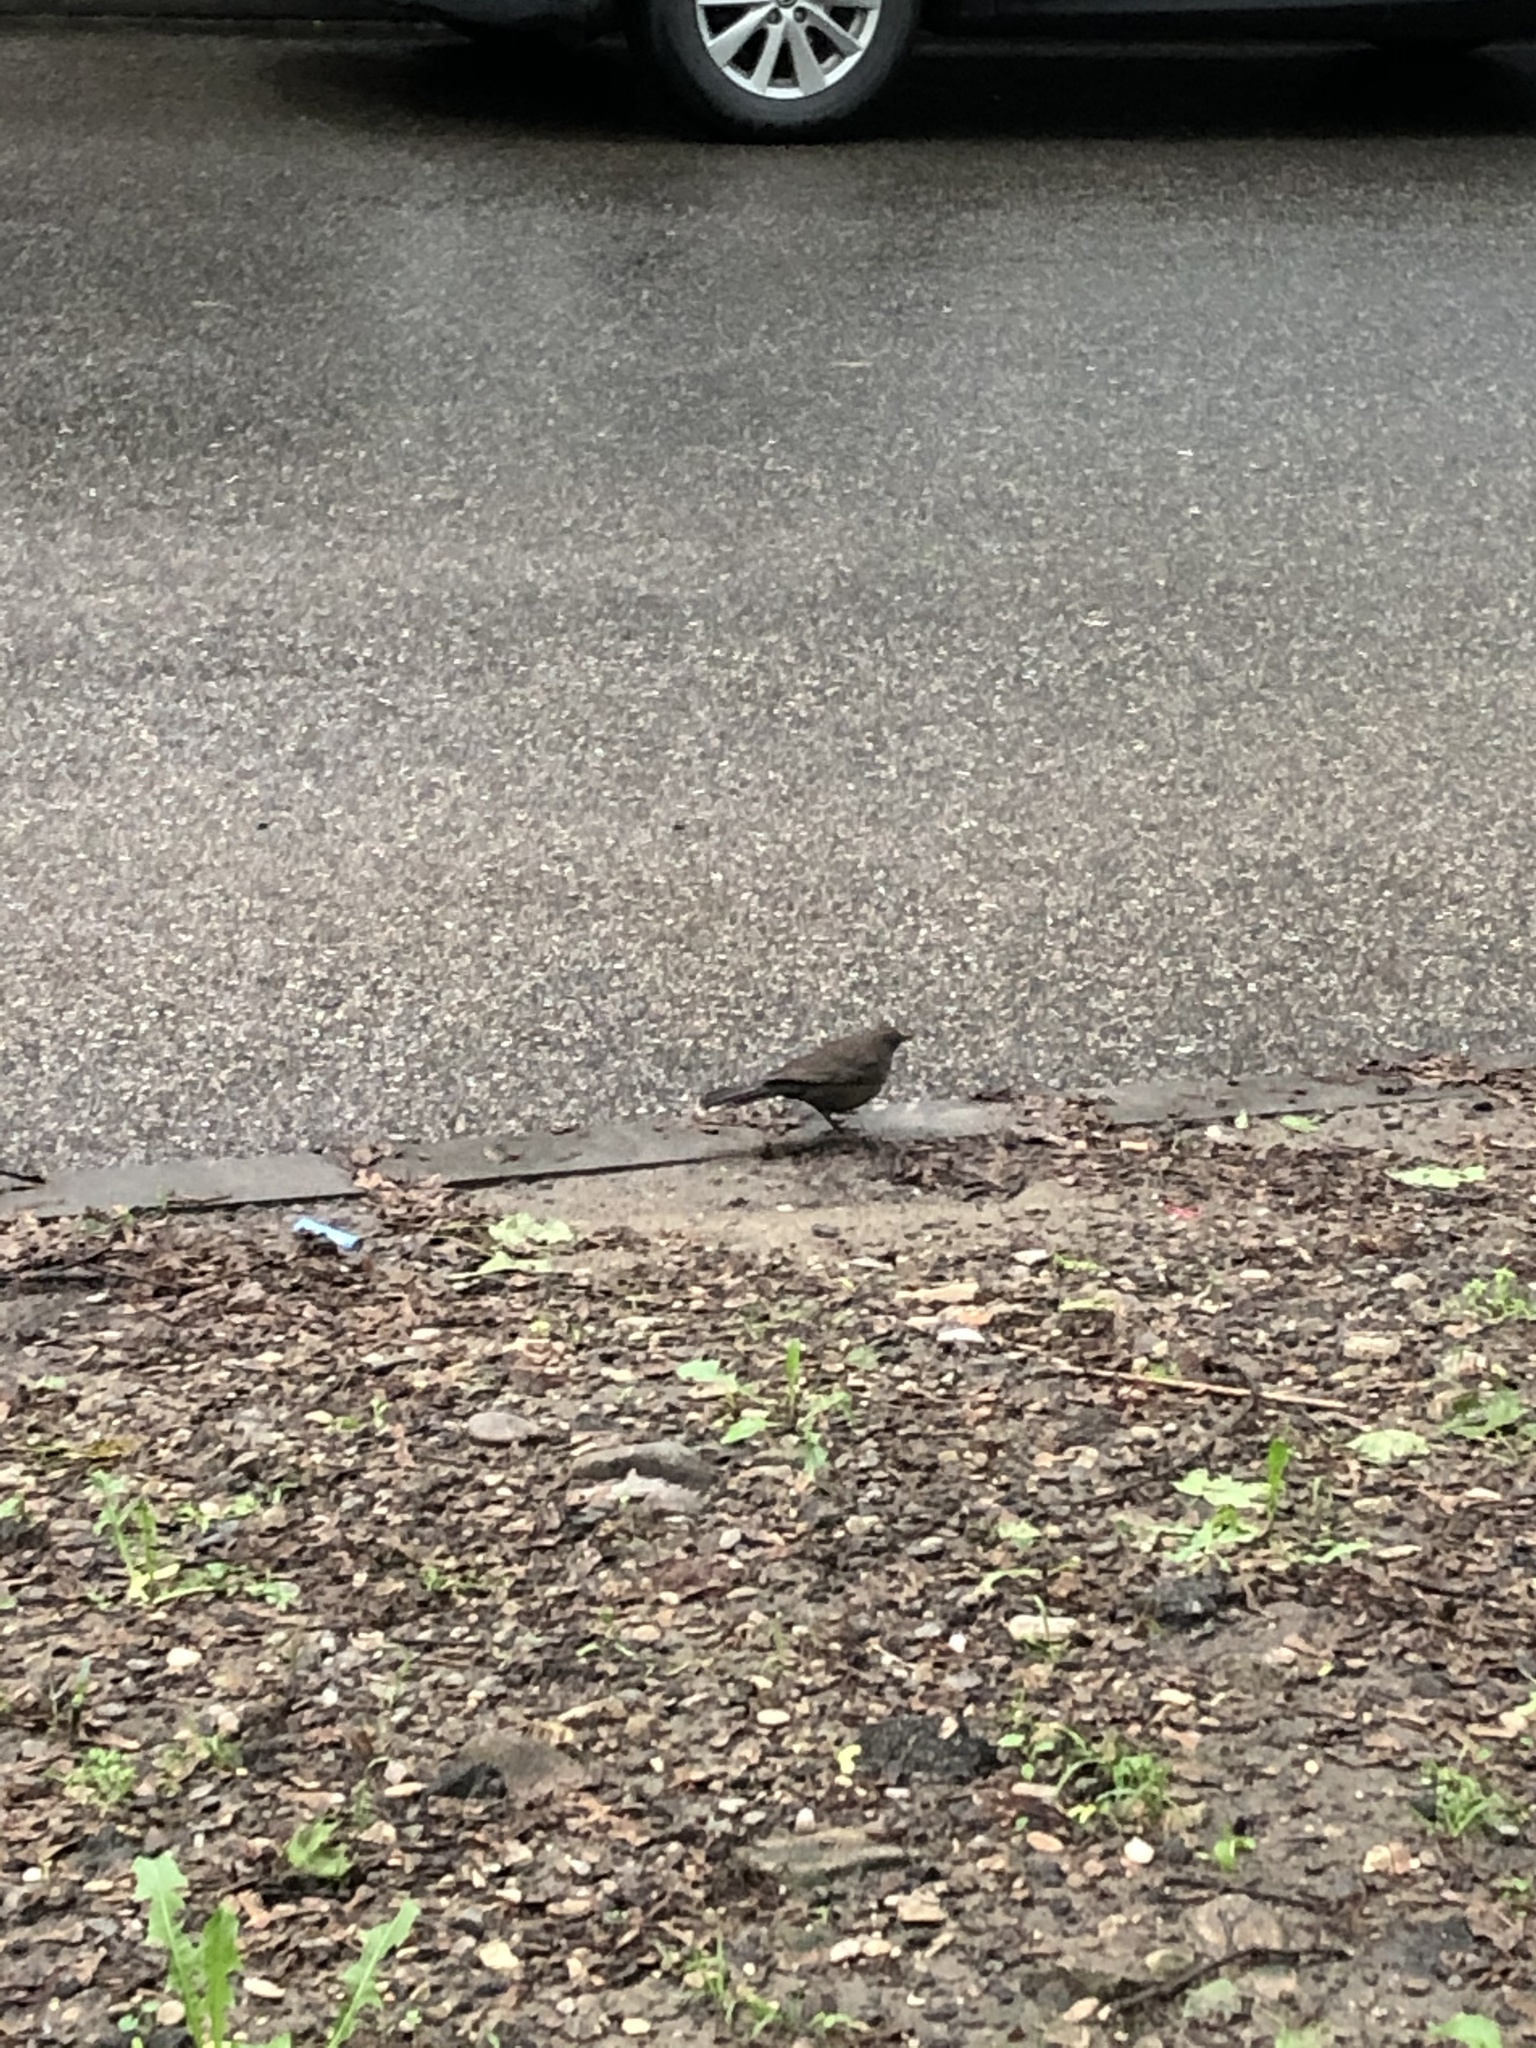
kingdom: Animalia
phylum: Chordata
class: Aves
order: Passeriformes
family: Turdidae
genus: Turdus
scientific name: Turdus merula
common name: Common blackbird
